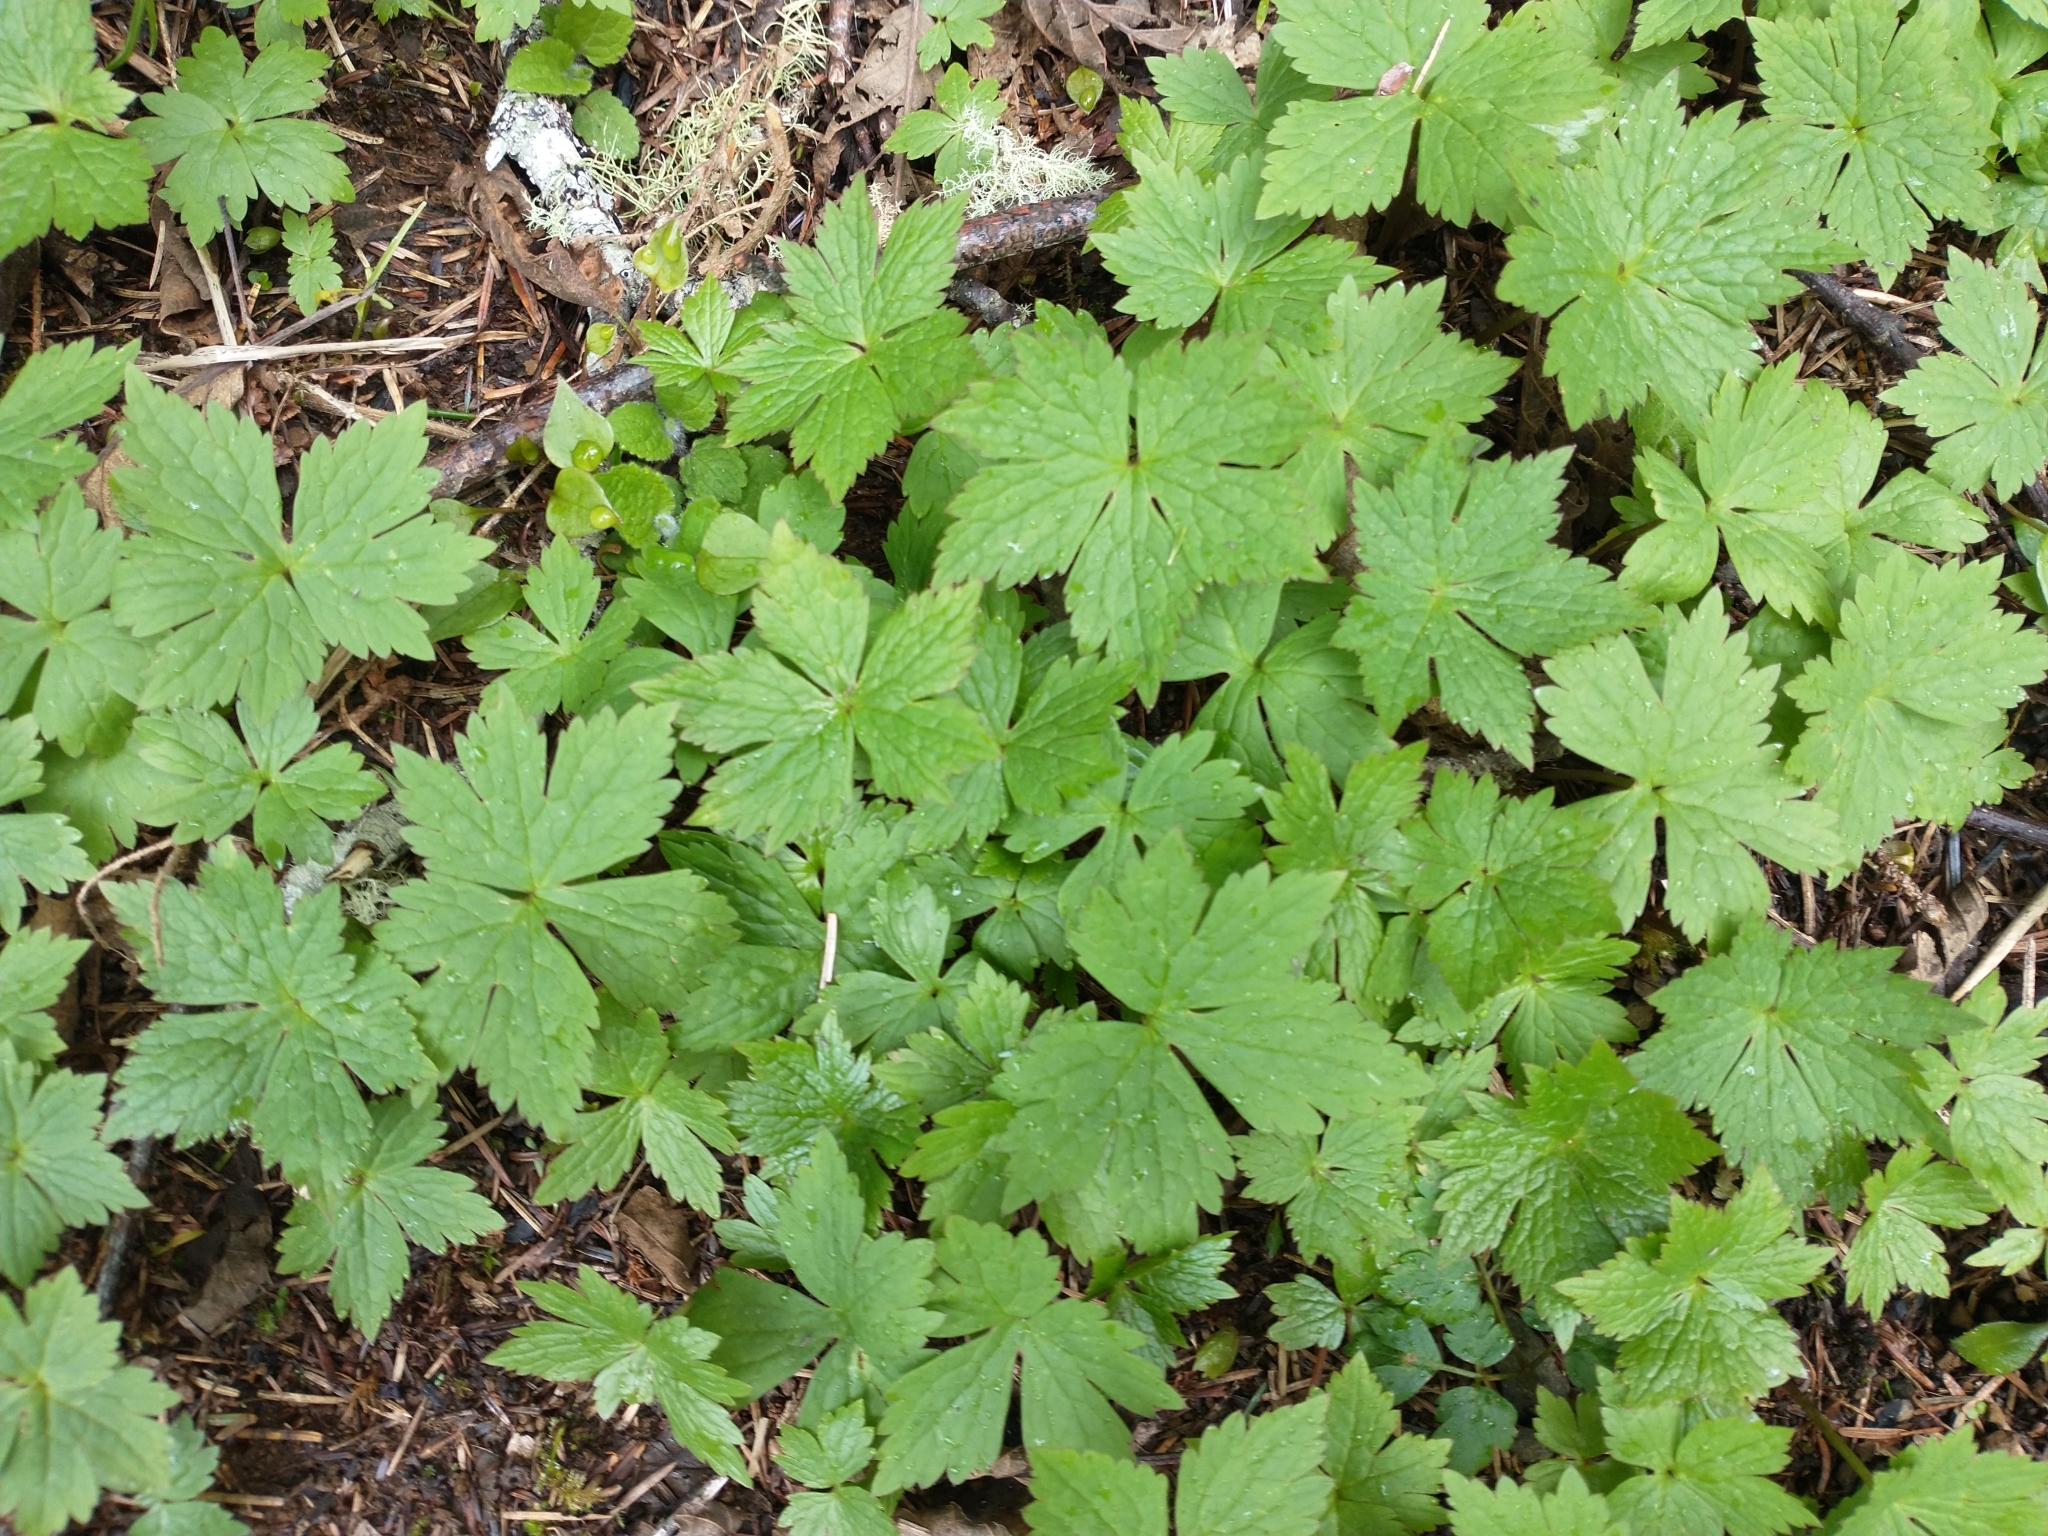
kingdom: Plantae
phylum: Tracheophyta
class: Magnoliopsida
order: Ranunculales
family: Ranunculaceae
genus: Trautvetteria
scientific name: Trautvetteria carolinensis
